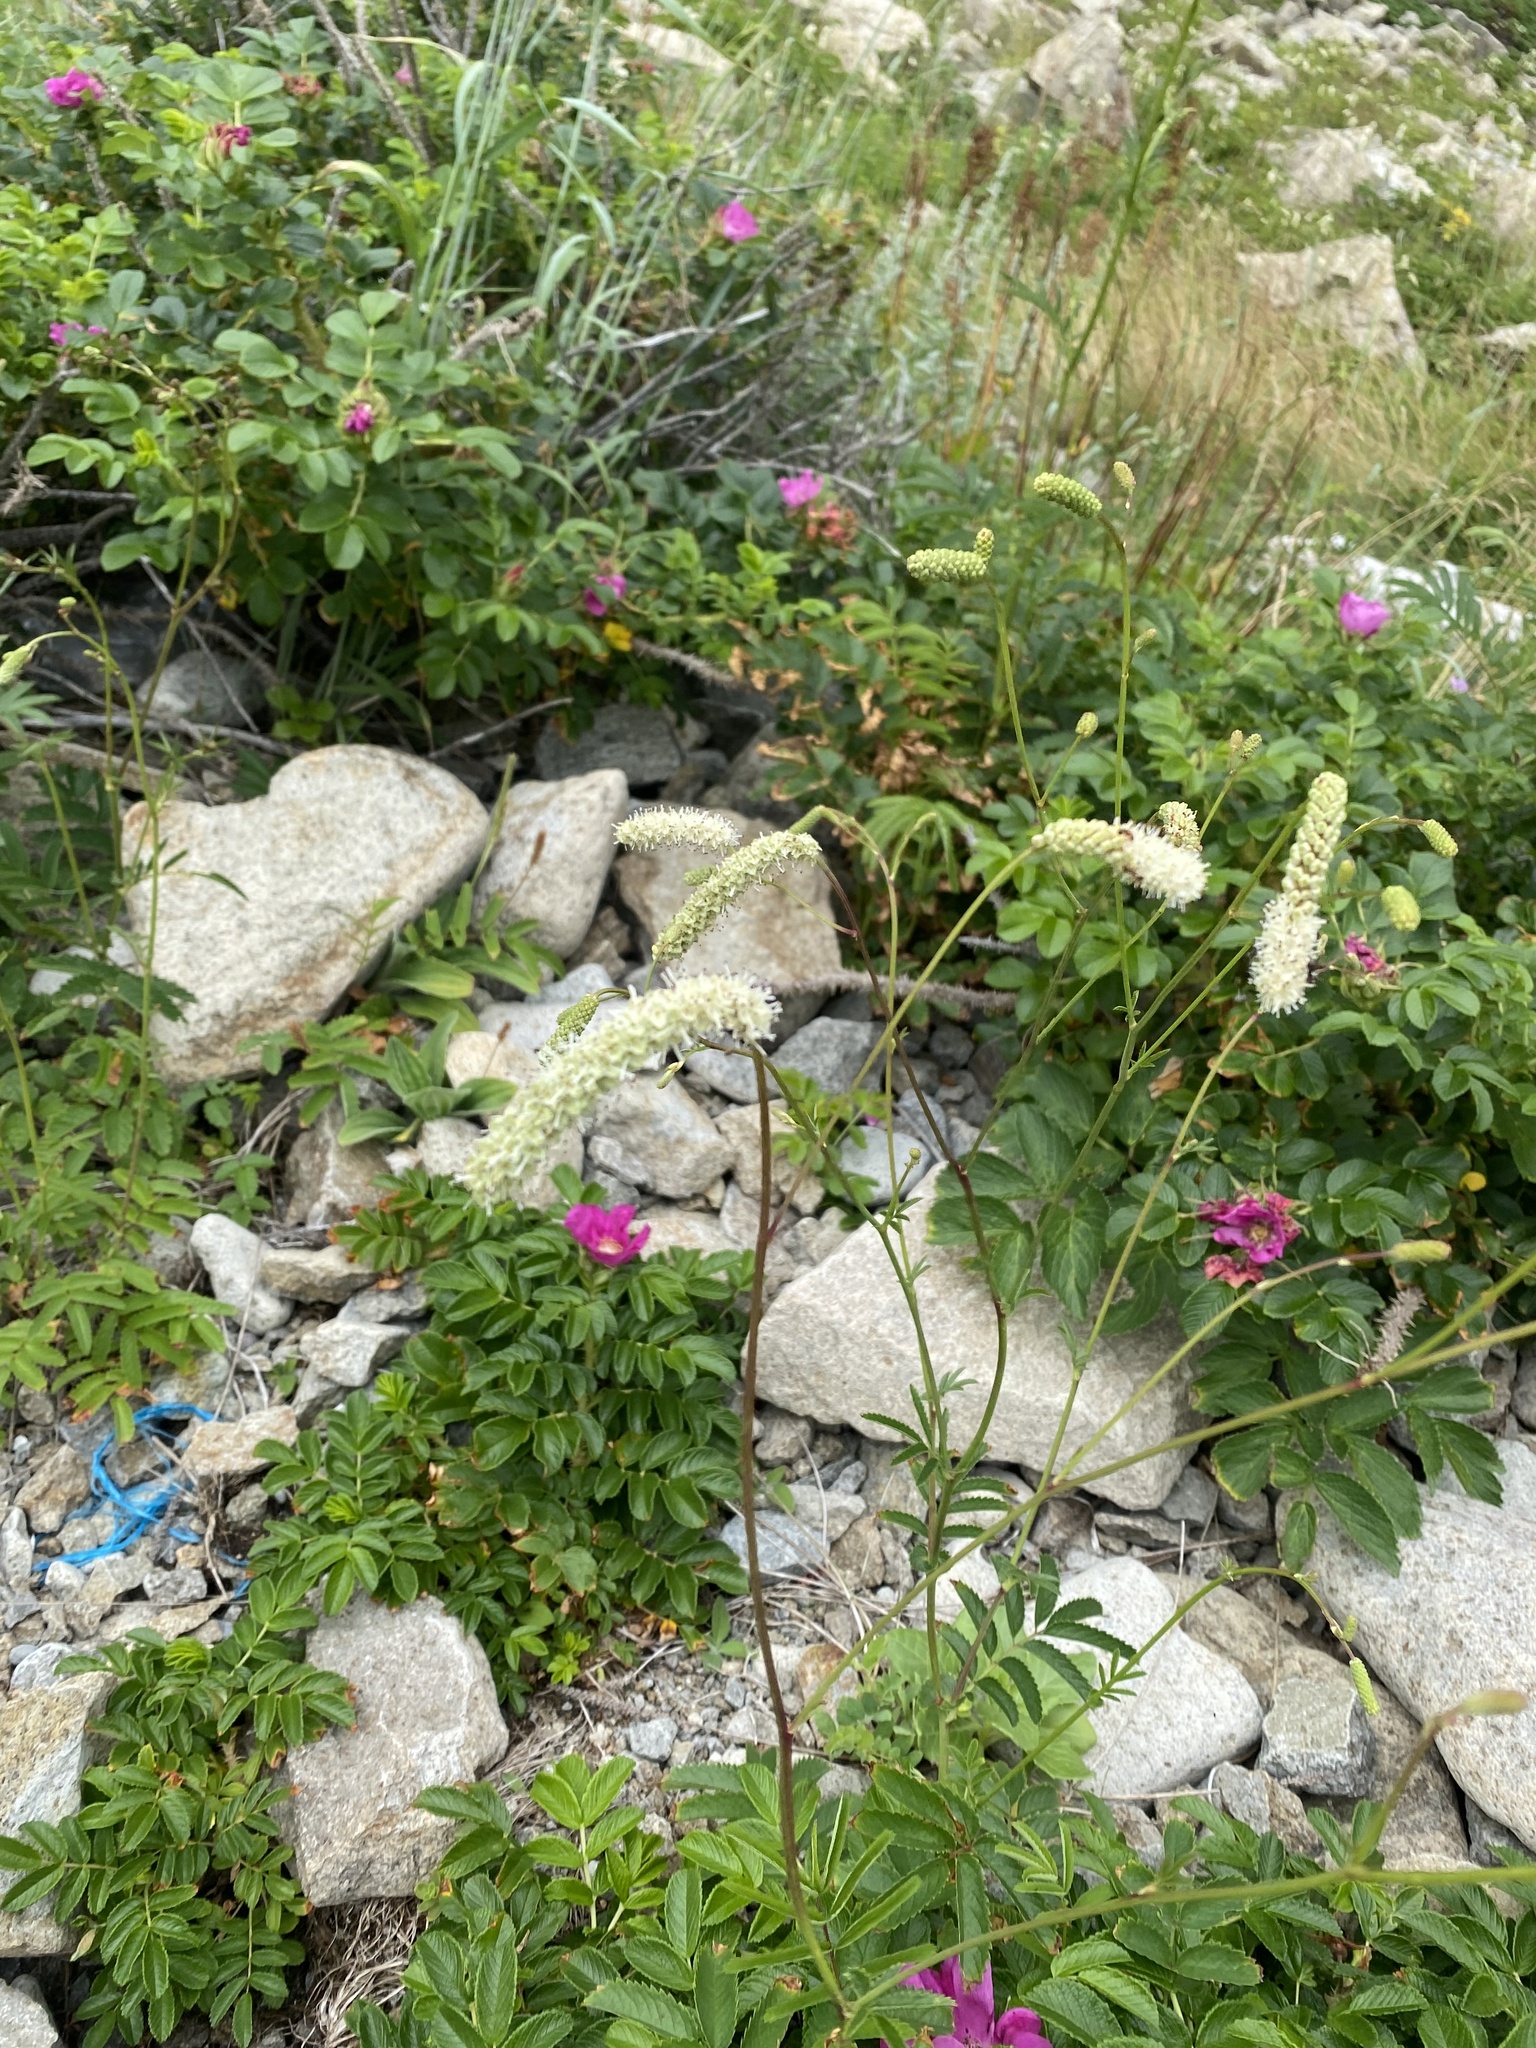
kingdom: Plantae
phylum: Tracheophyta
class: Magnoliopsida
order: Rosales
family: Rosaceae
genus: Poterium
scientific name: Poterium tenuifolium
